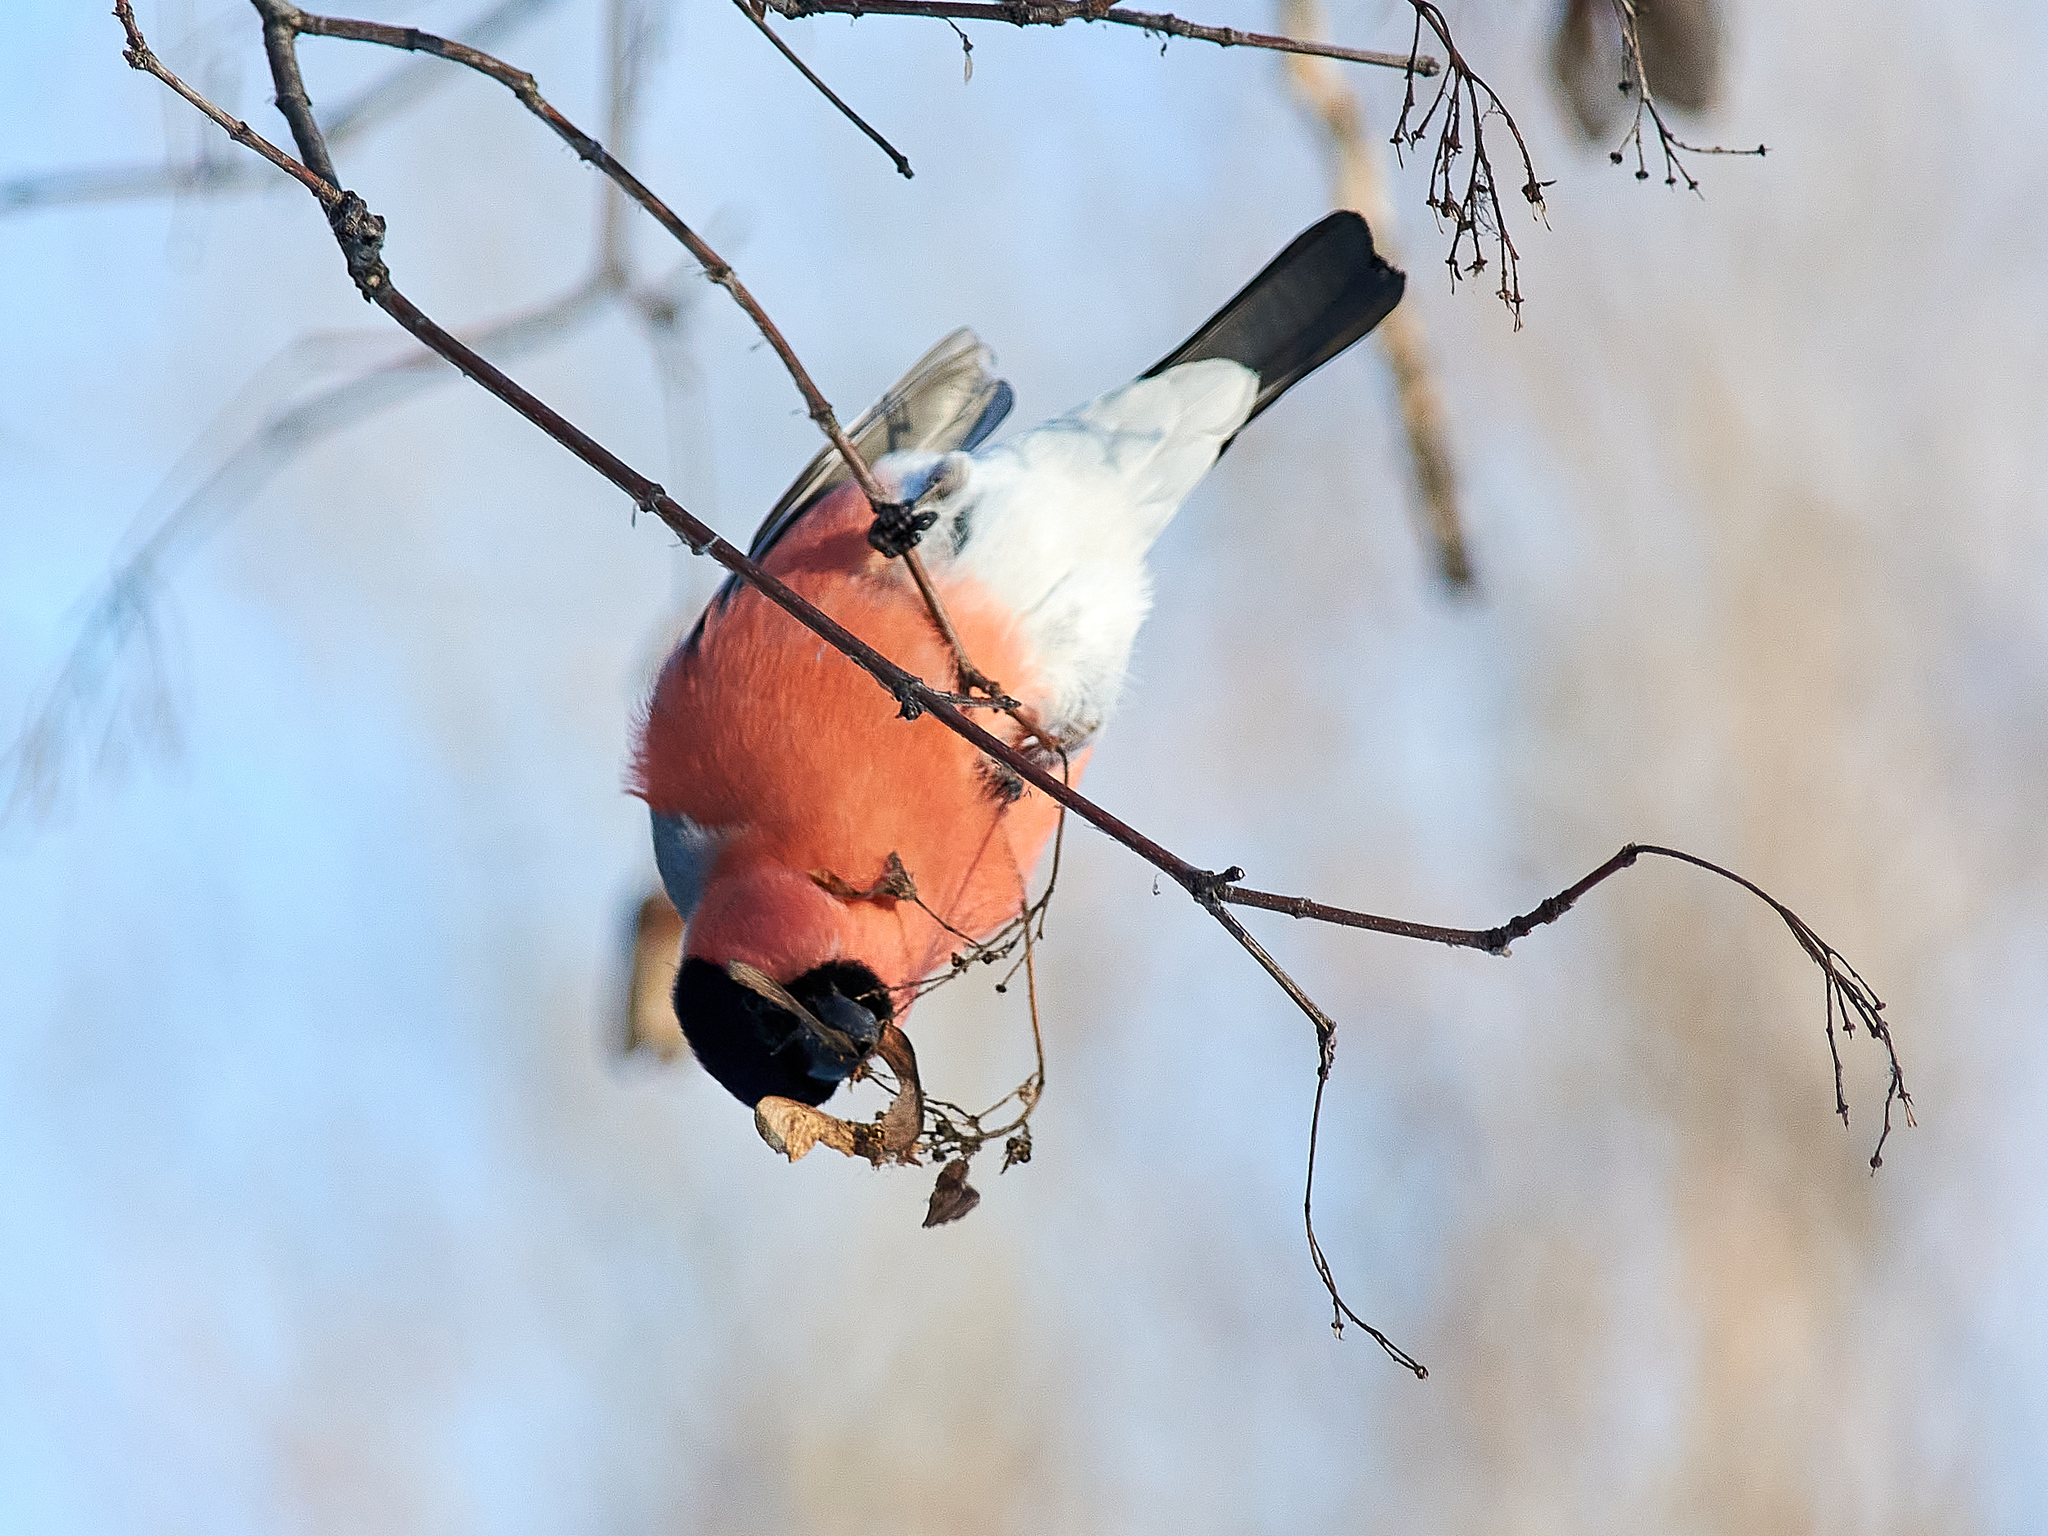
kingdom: Animalia
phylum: Chordata
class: Aves
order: Passeriformes
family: Fringillidae
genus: Pyrrhula
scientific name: Pyrrhula pyrrhula
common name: Eurasian bullfinch
